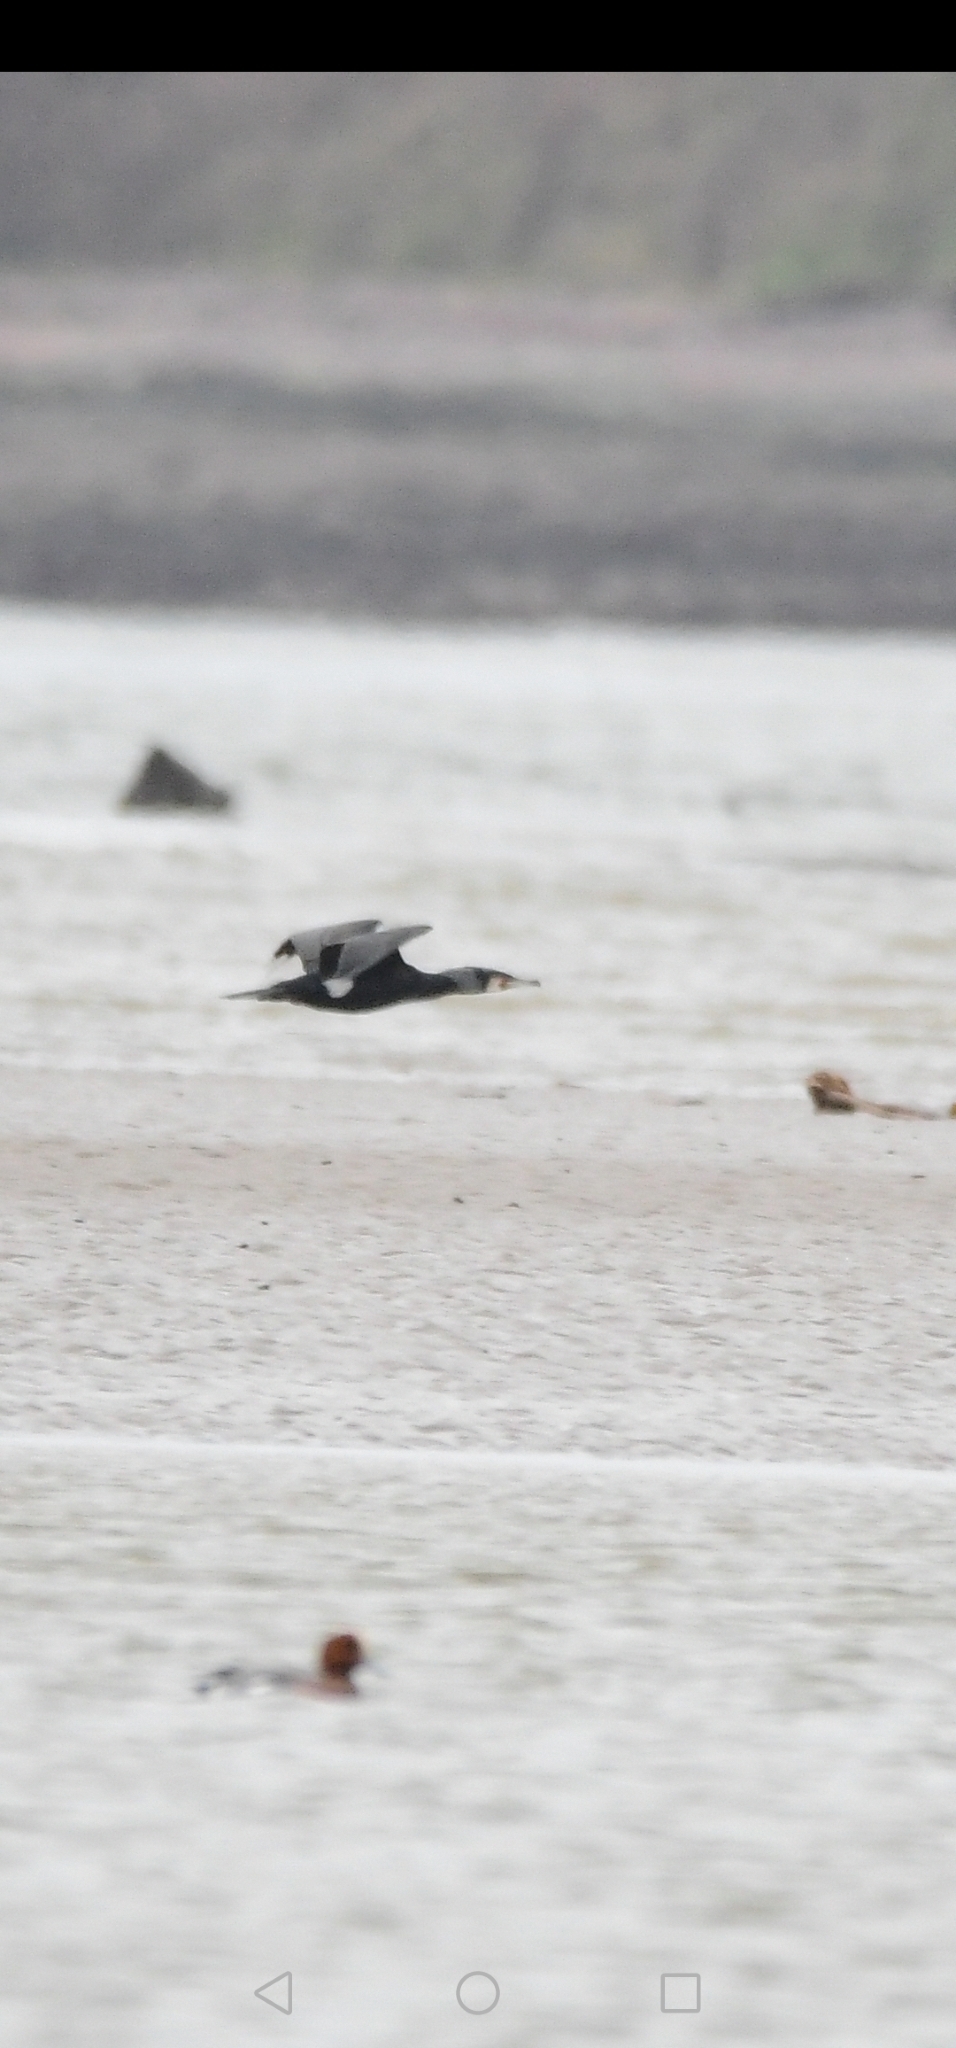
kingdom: Animalia
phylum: Chordata
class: Aves
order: Suliformes
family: Phalacrocoracidae
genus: Phalacrocorax
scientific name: Phalacrocorax carbo
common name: Great cormorant
